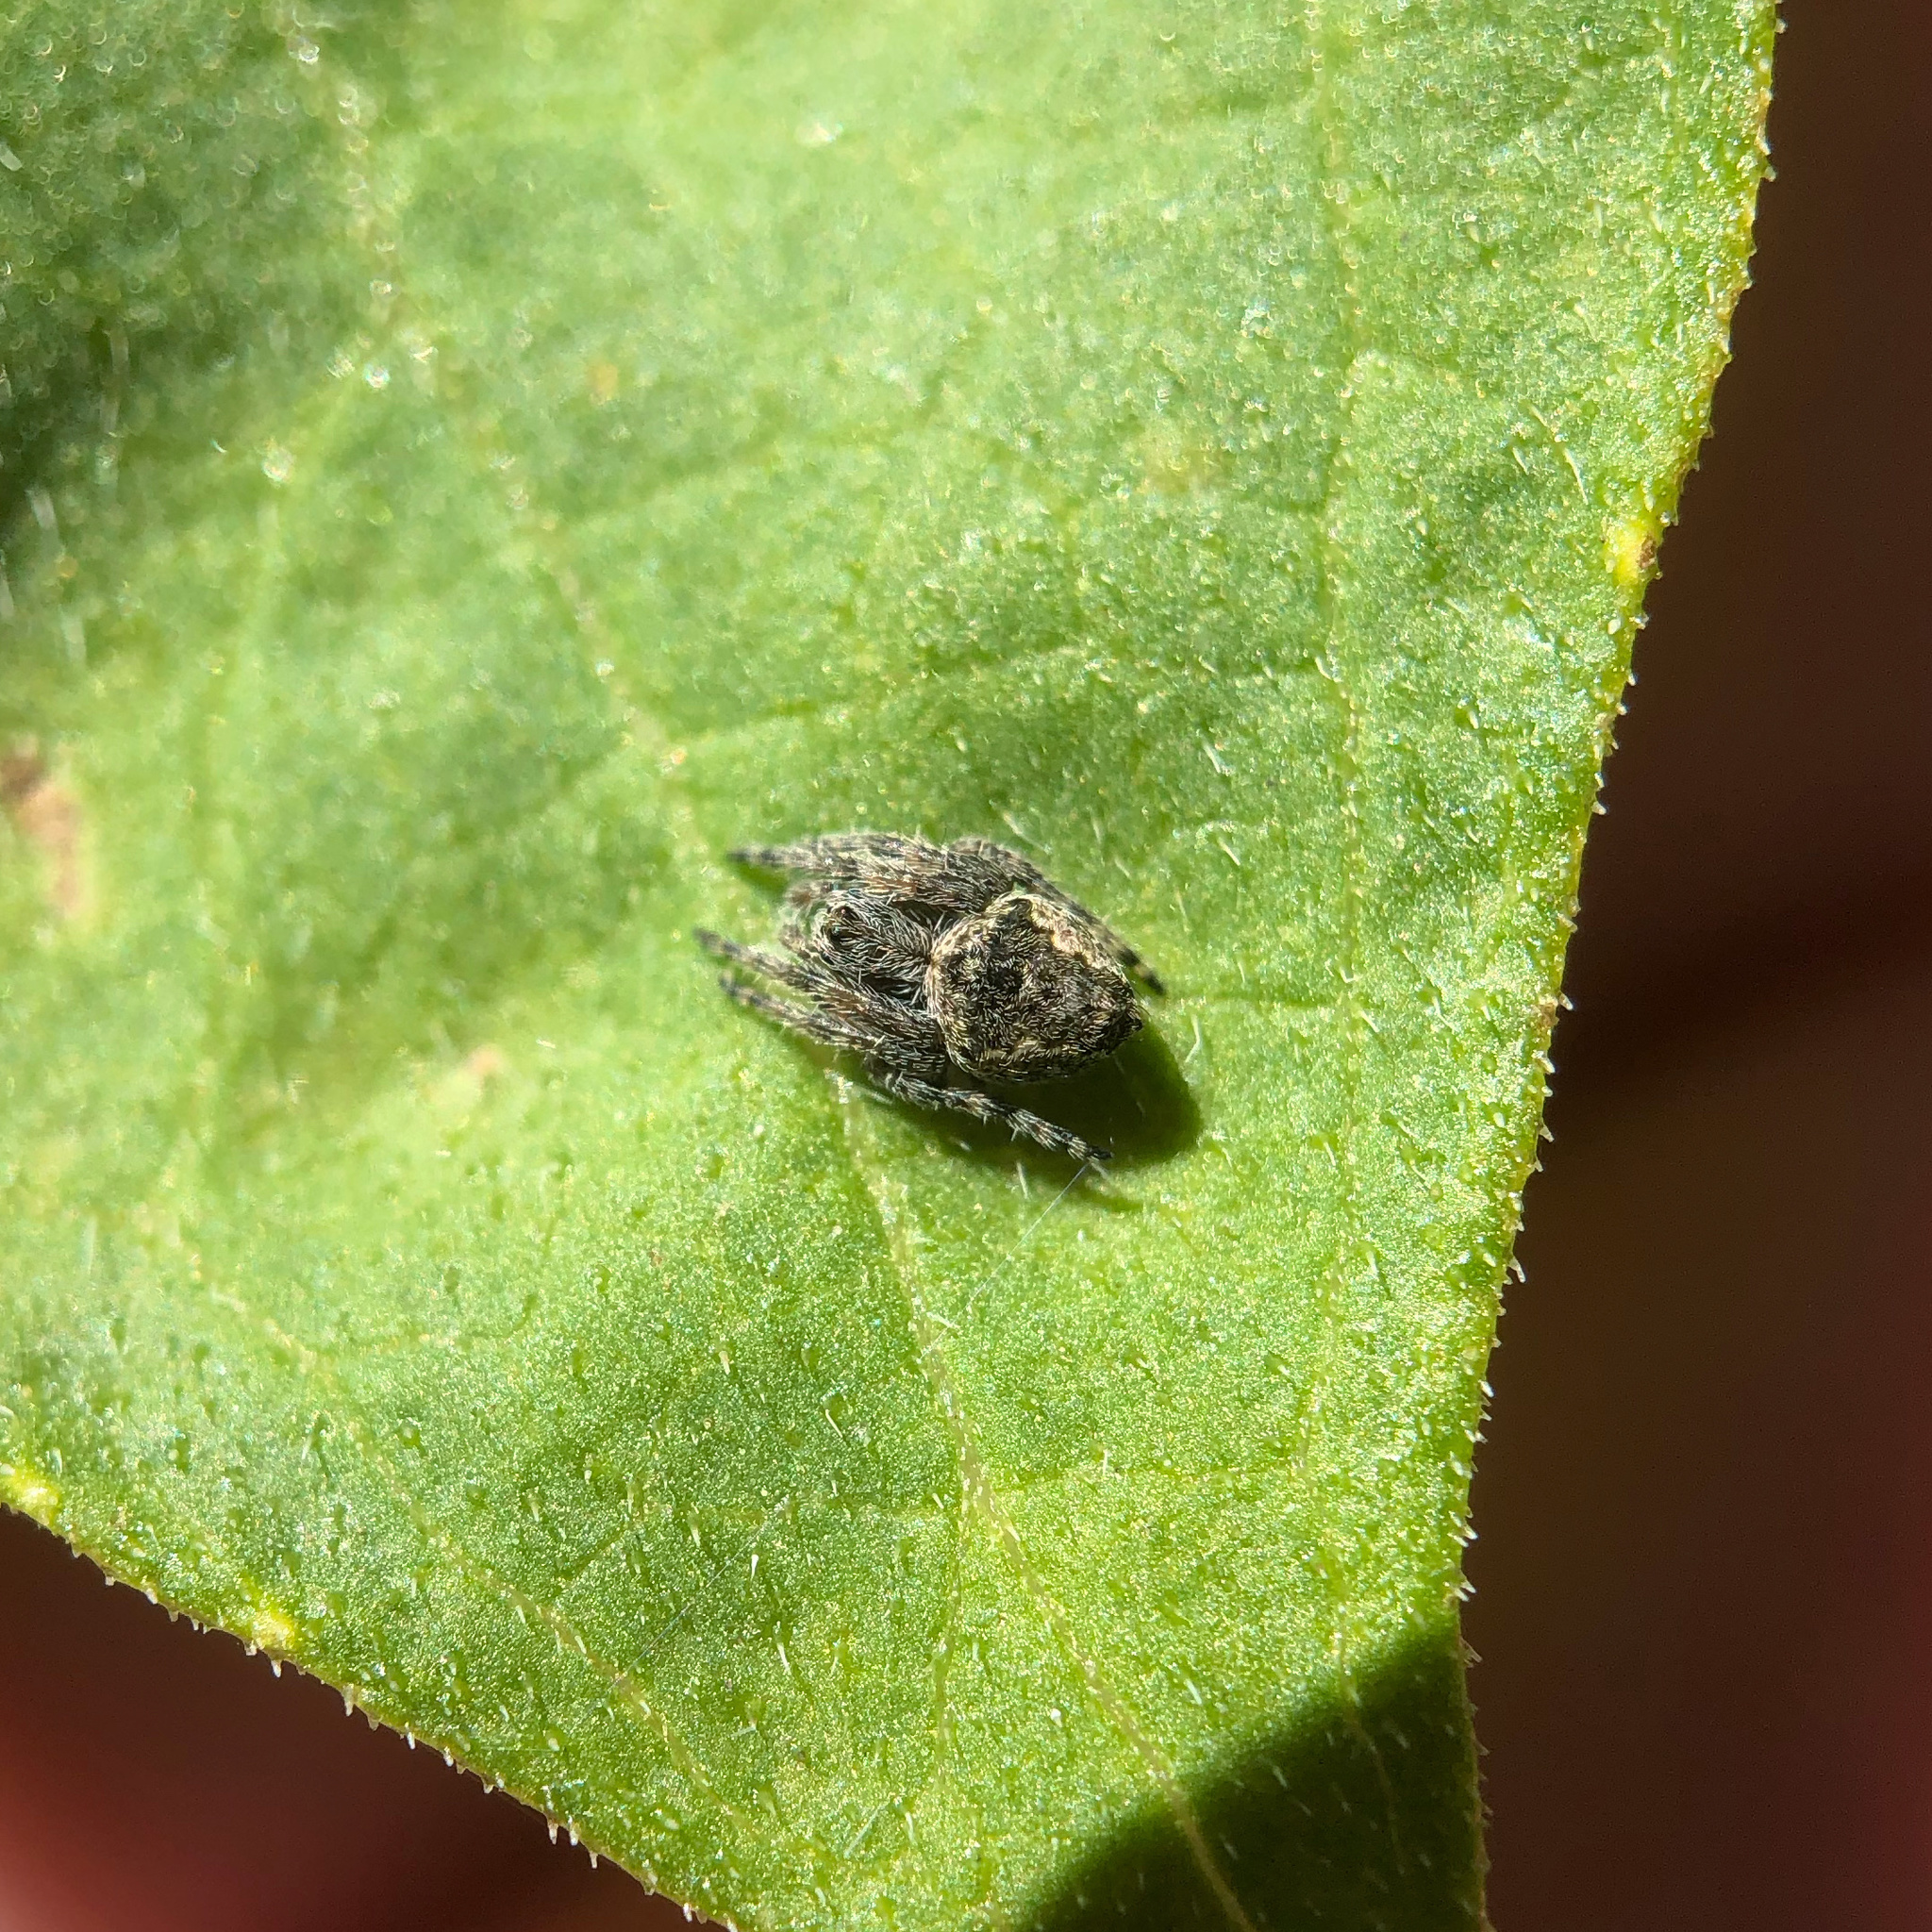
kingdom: Animalia
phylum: Arthropoda
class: Arachnida
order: Araneae
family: Araneidae
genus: Eriophora
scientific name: Eriophora pustulosa
